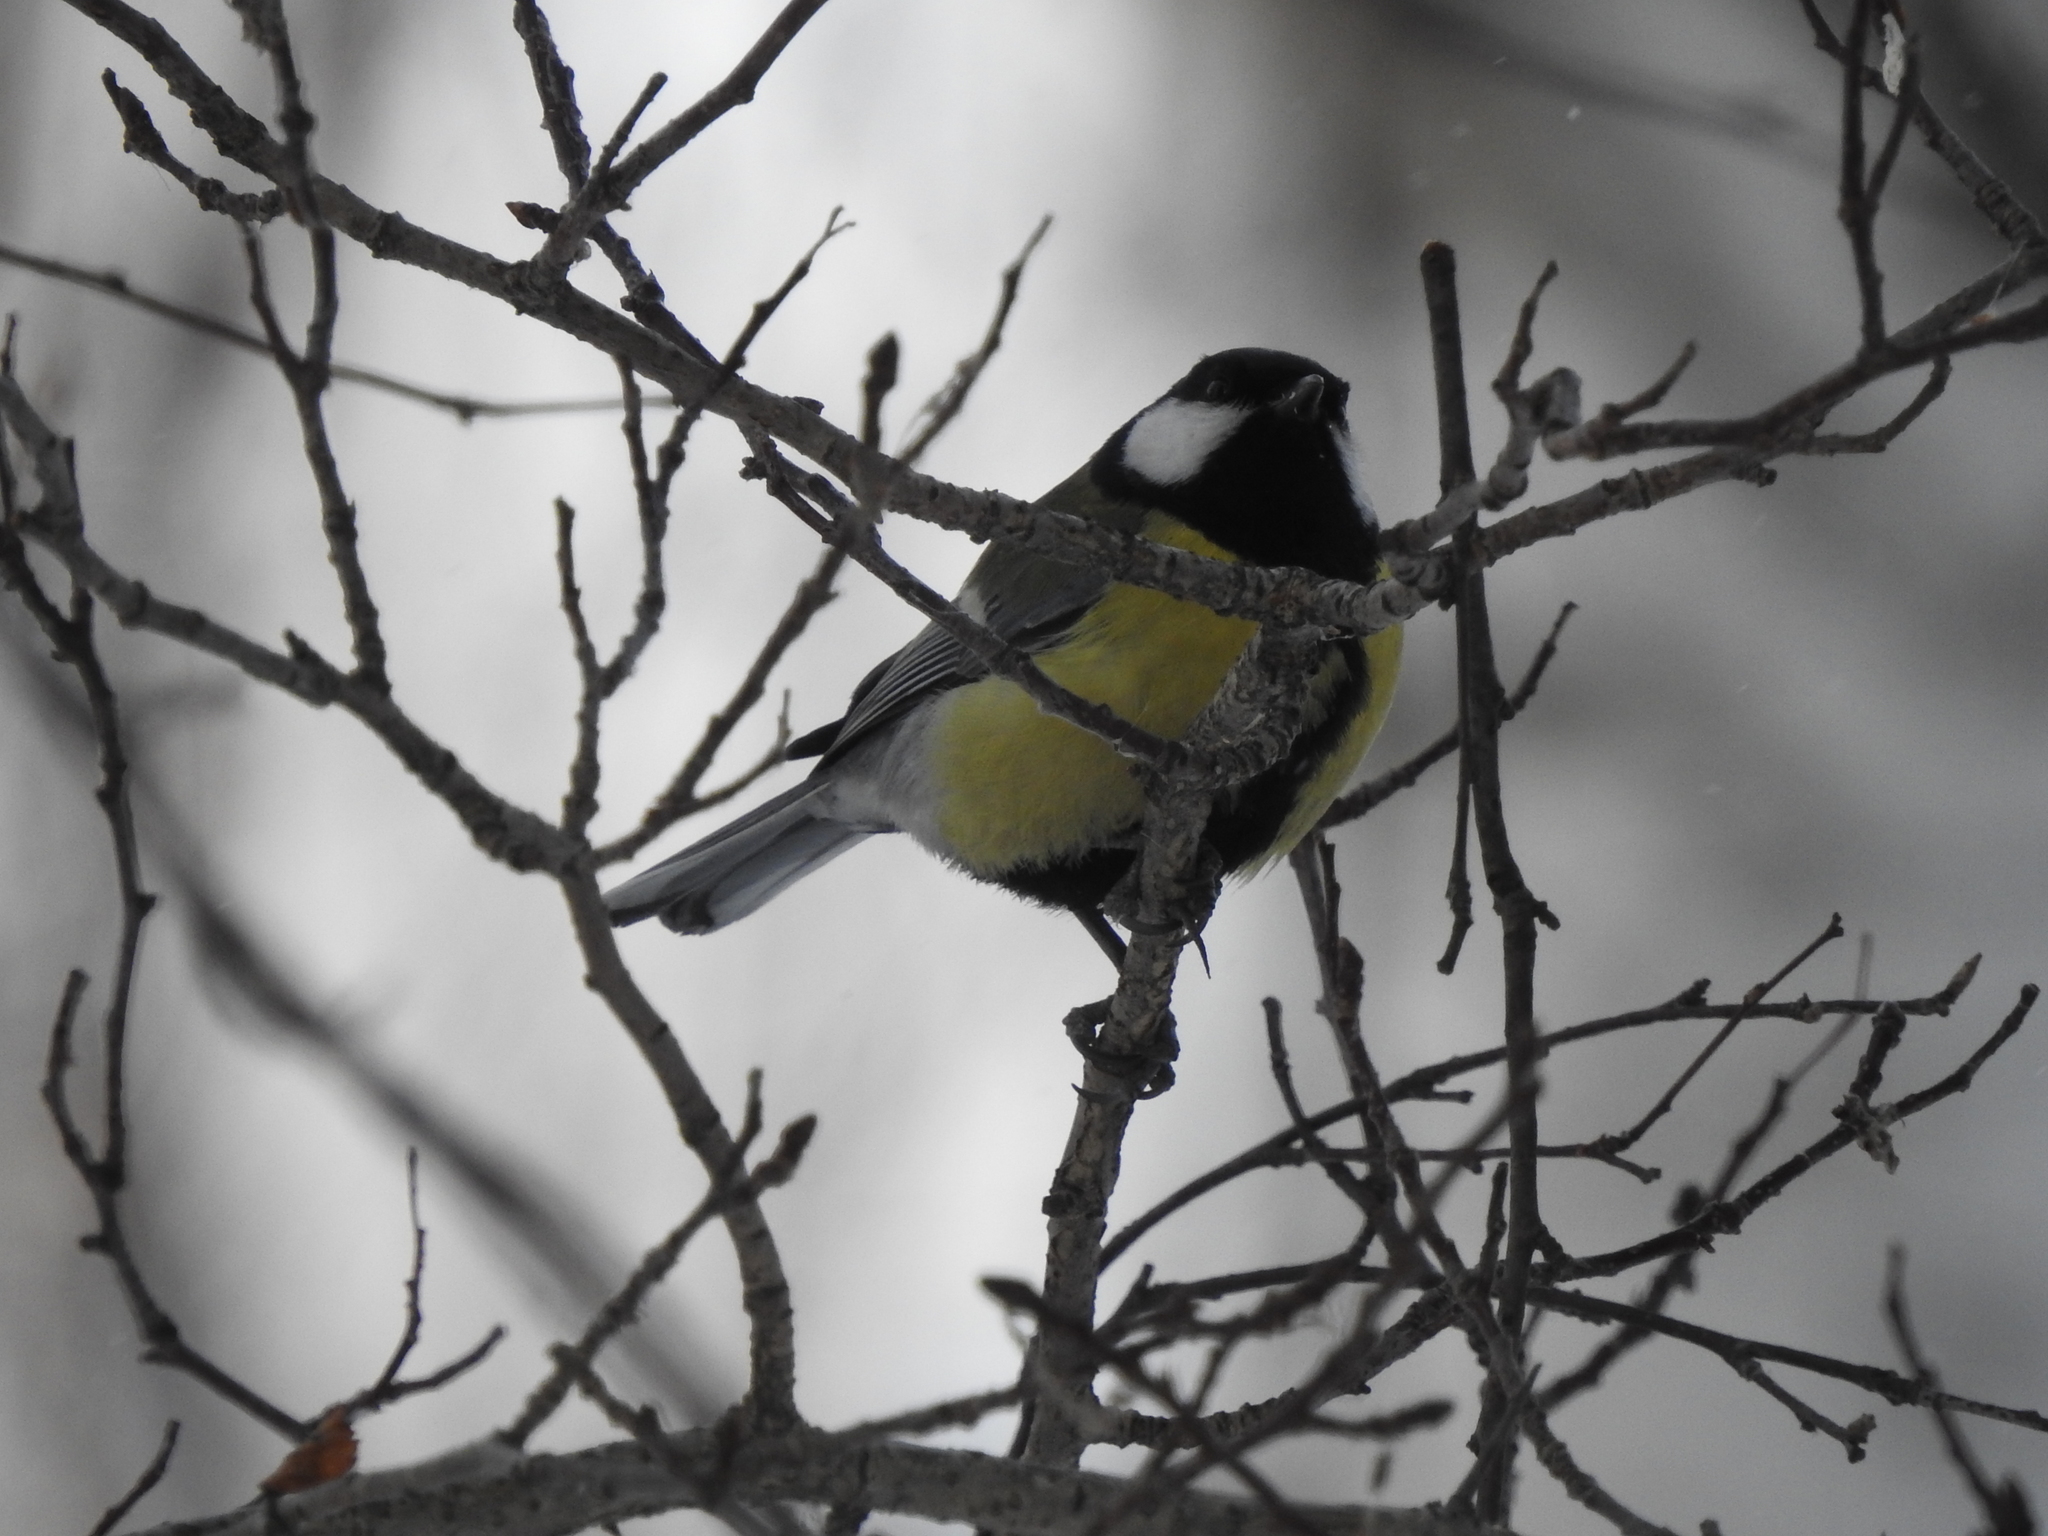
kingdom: Animalia
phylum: Chordata
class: Aves
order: Passeriformes
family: Paridae
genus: Parus
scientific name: Parus major
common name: Great tit
